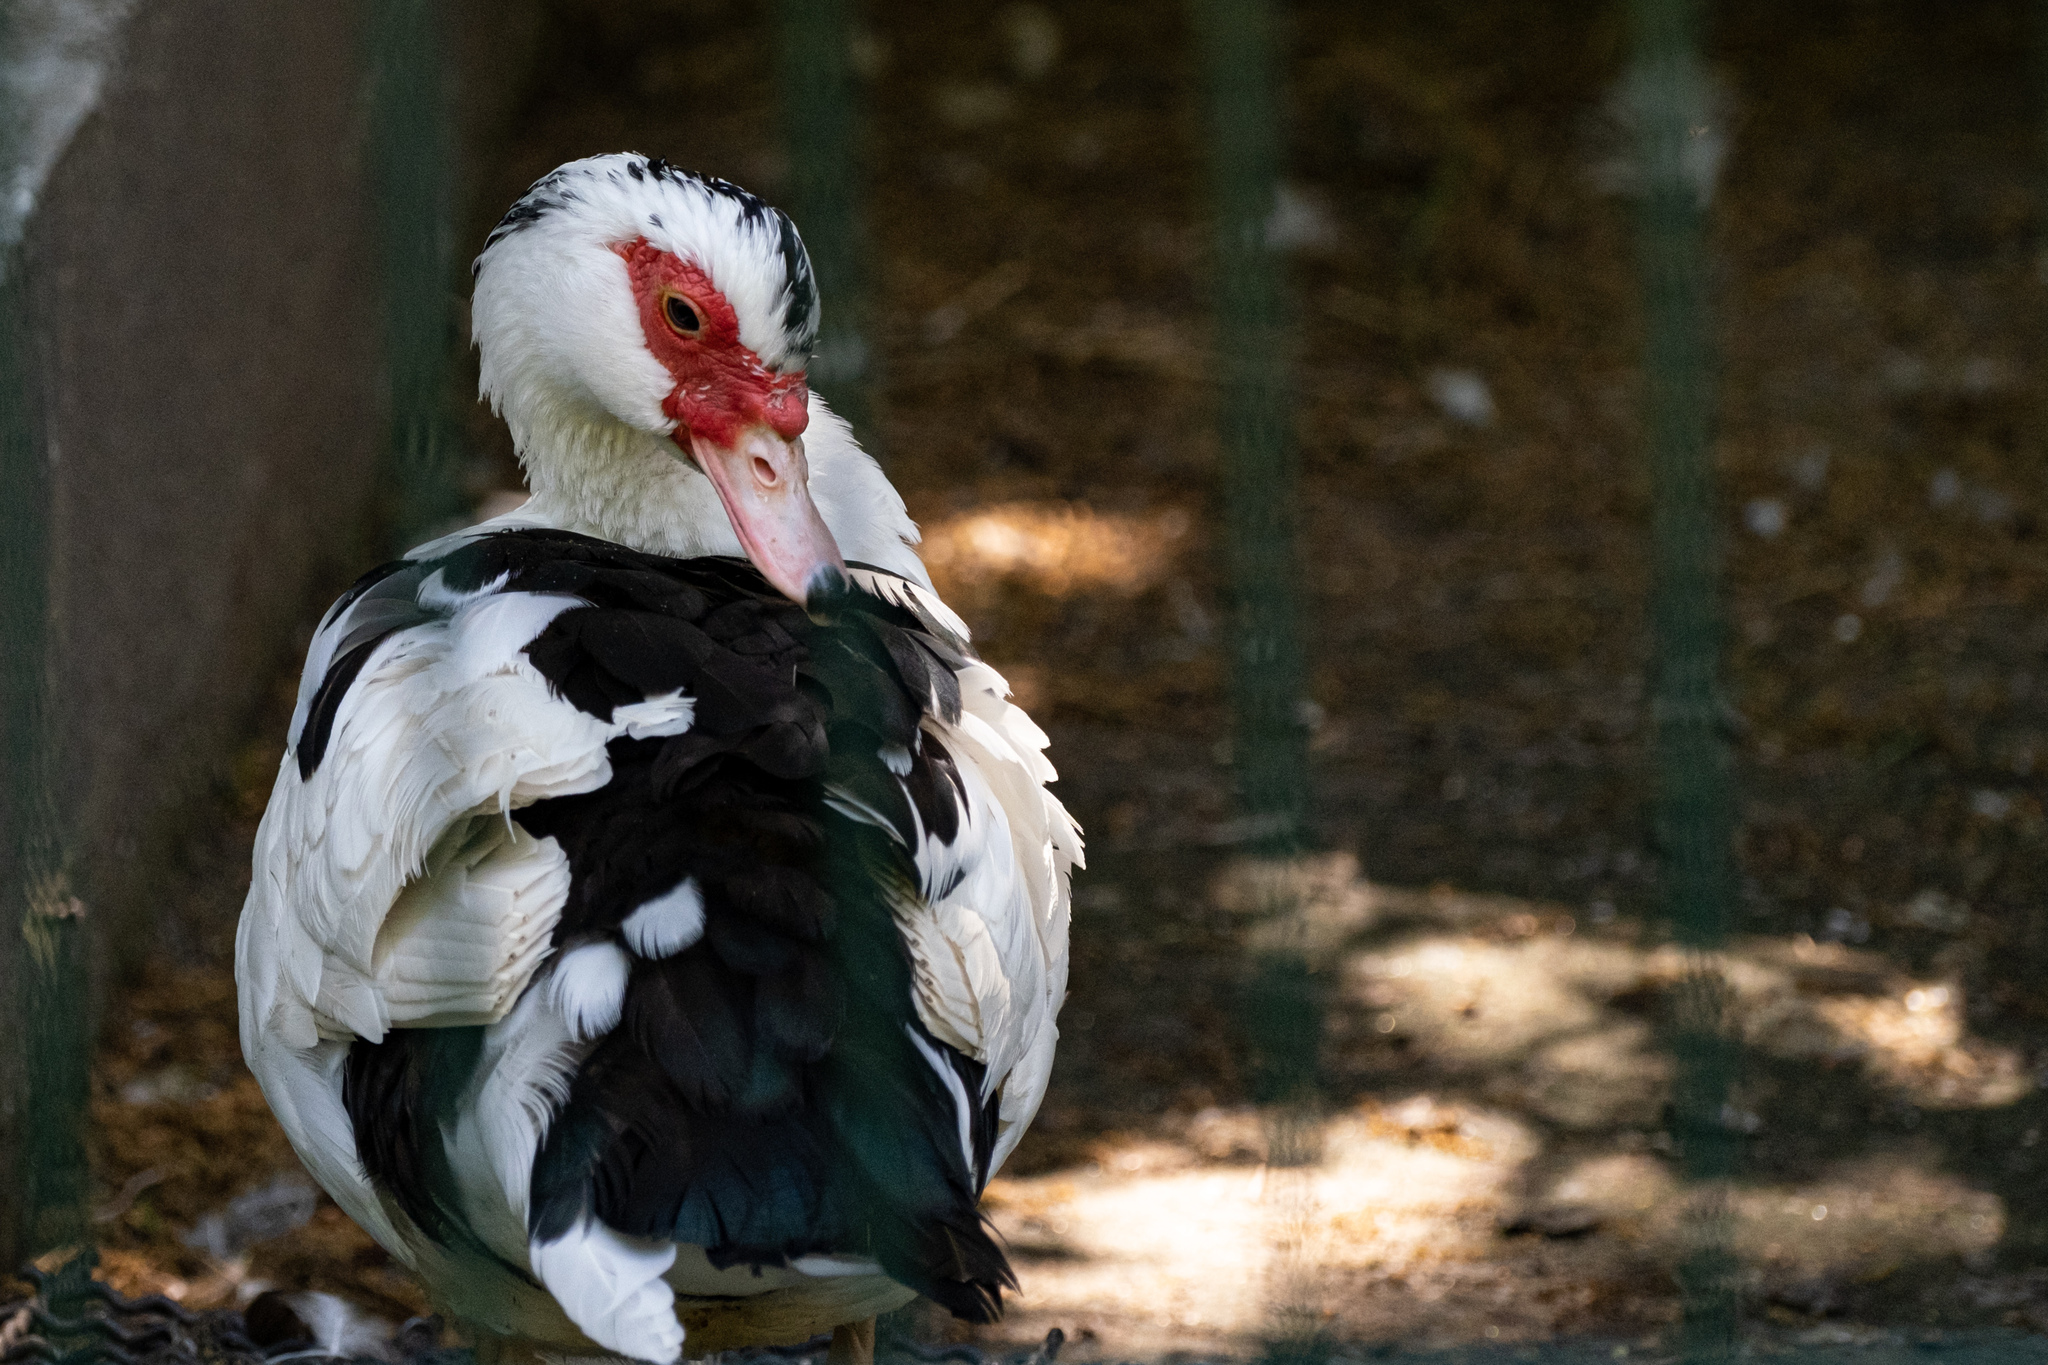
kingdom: Animalia
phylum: Chordata
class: Aves
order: Anseriformes
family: Anatidae
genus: Cairina
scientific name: Cairina moschata
